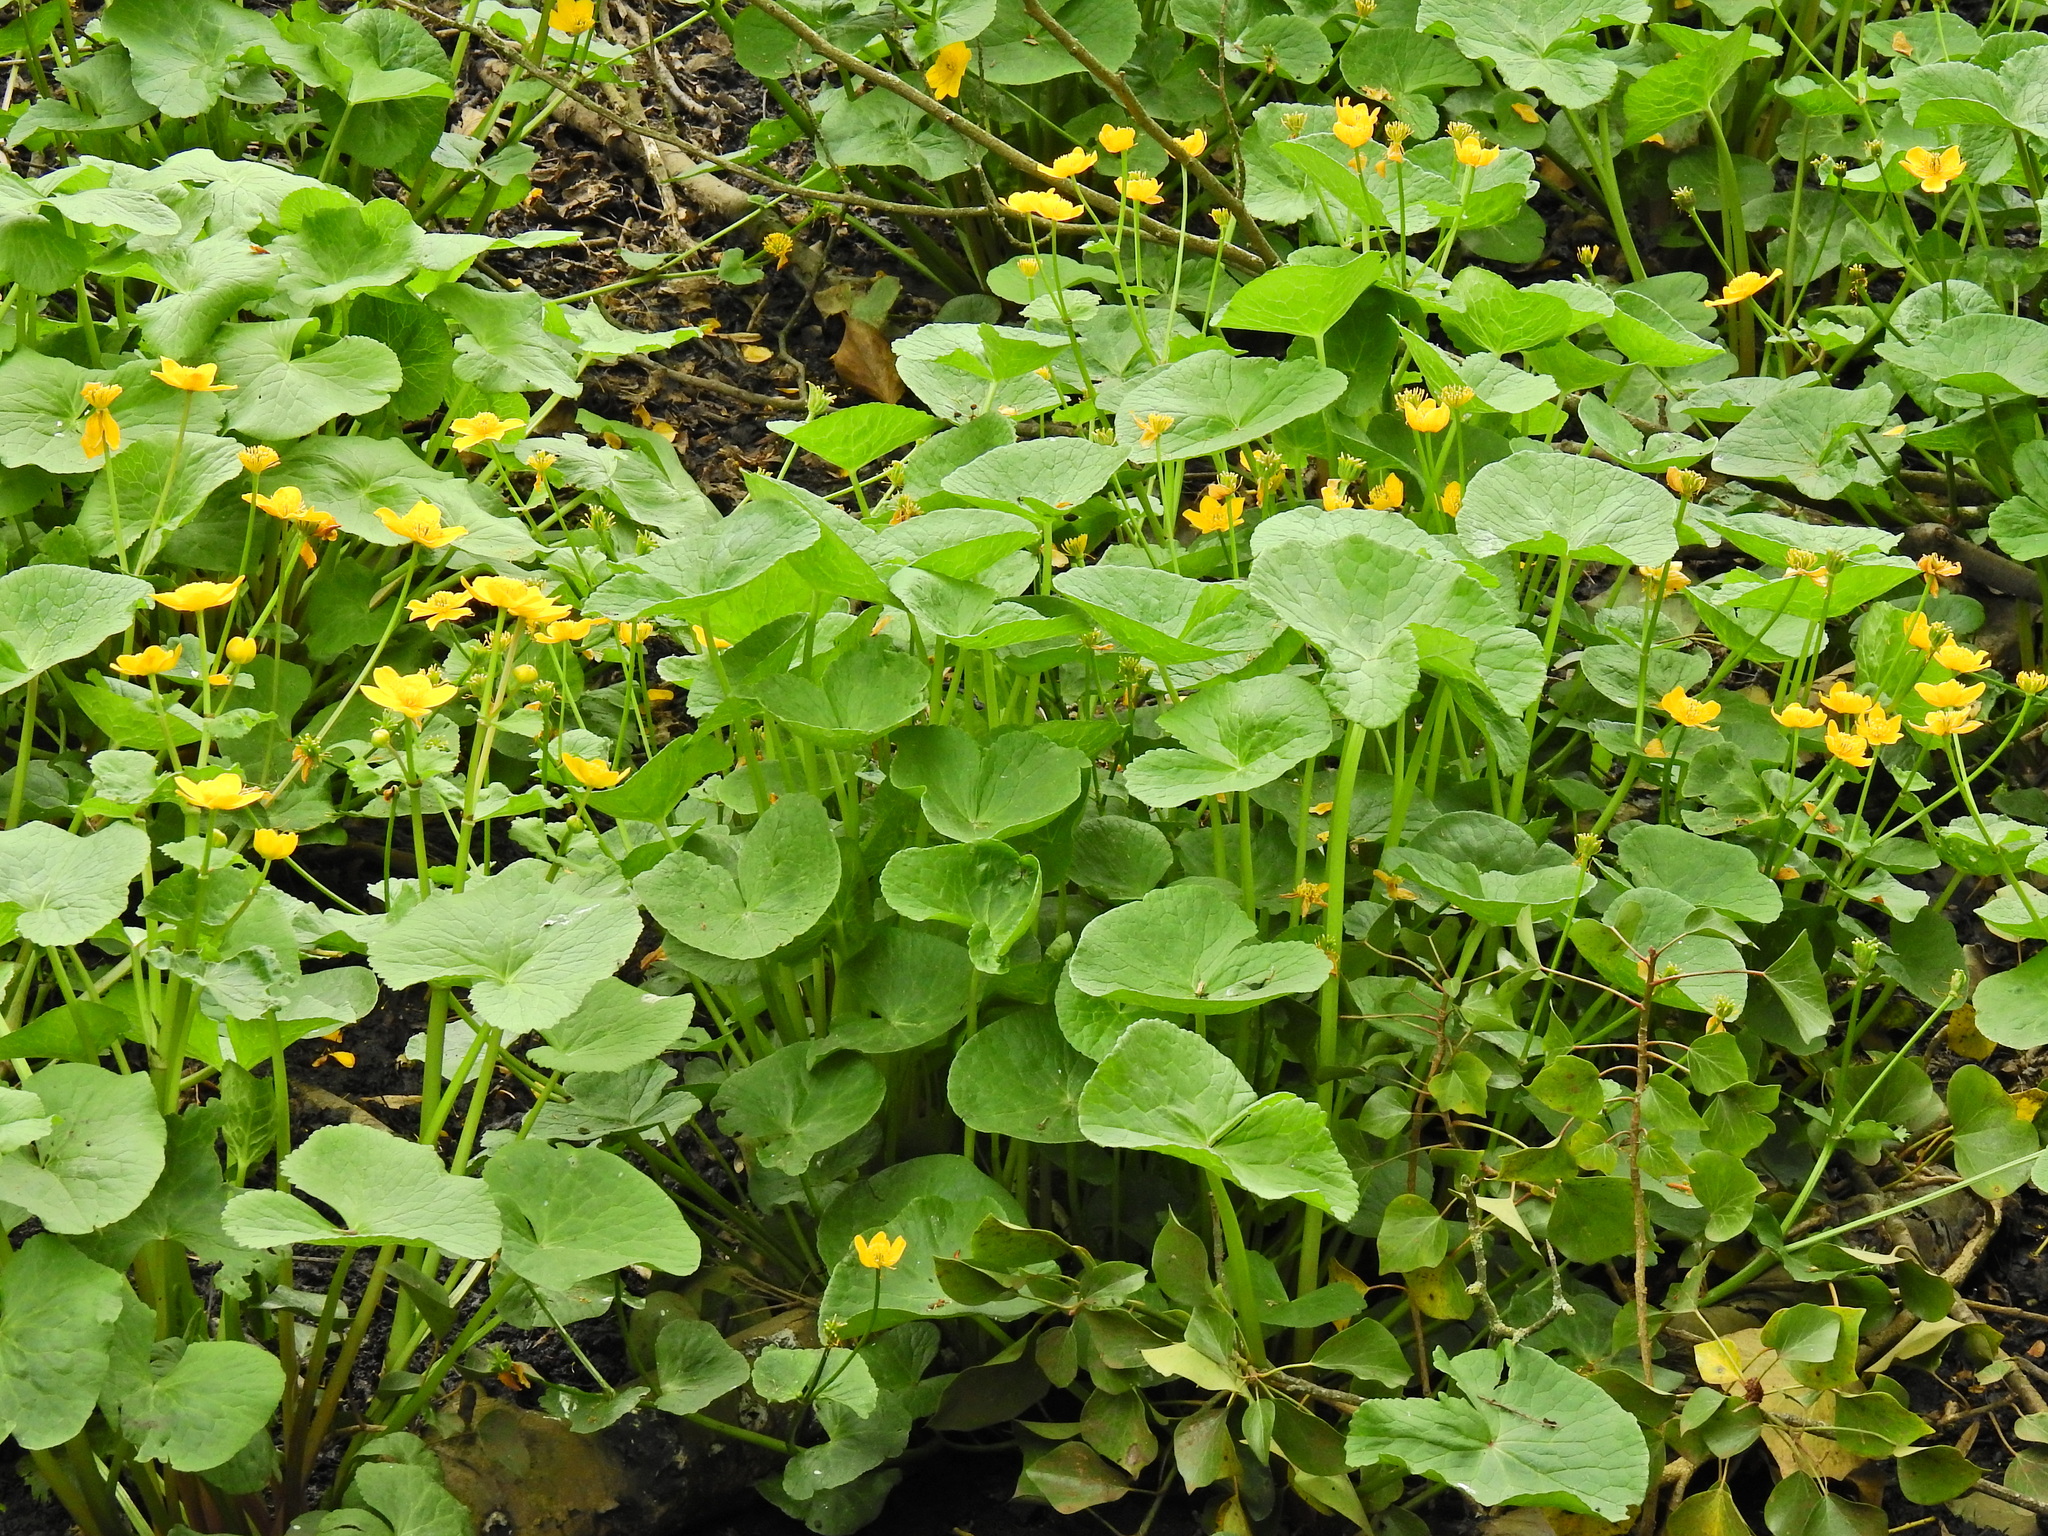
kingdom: Plantae
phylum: Tracheophyta
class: Magnoliopsida
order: Ranunculales
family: Ranunculaceae
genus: Caltha
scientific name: Caltha palustris
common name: Marsh marigold
